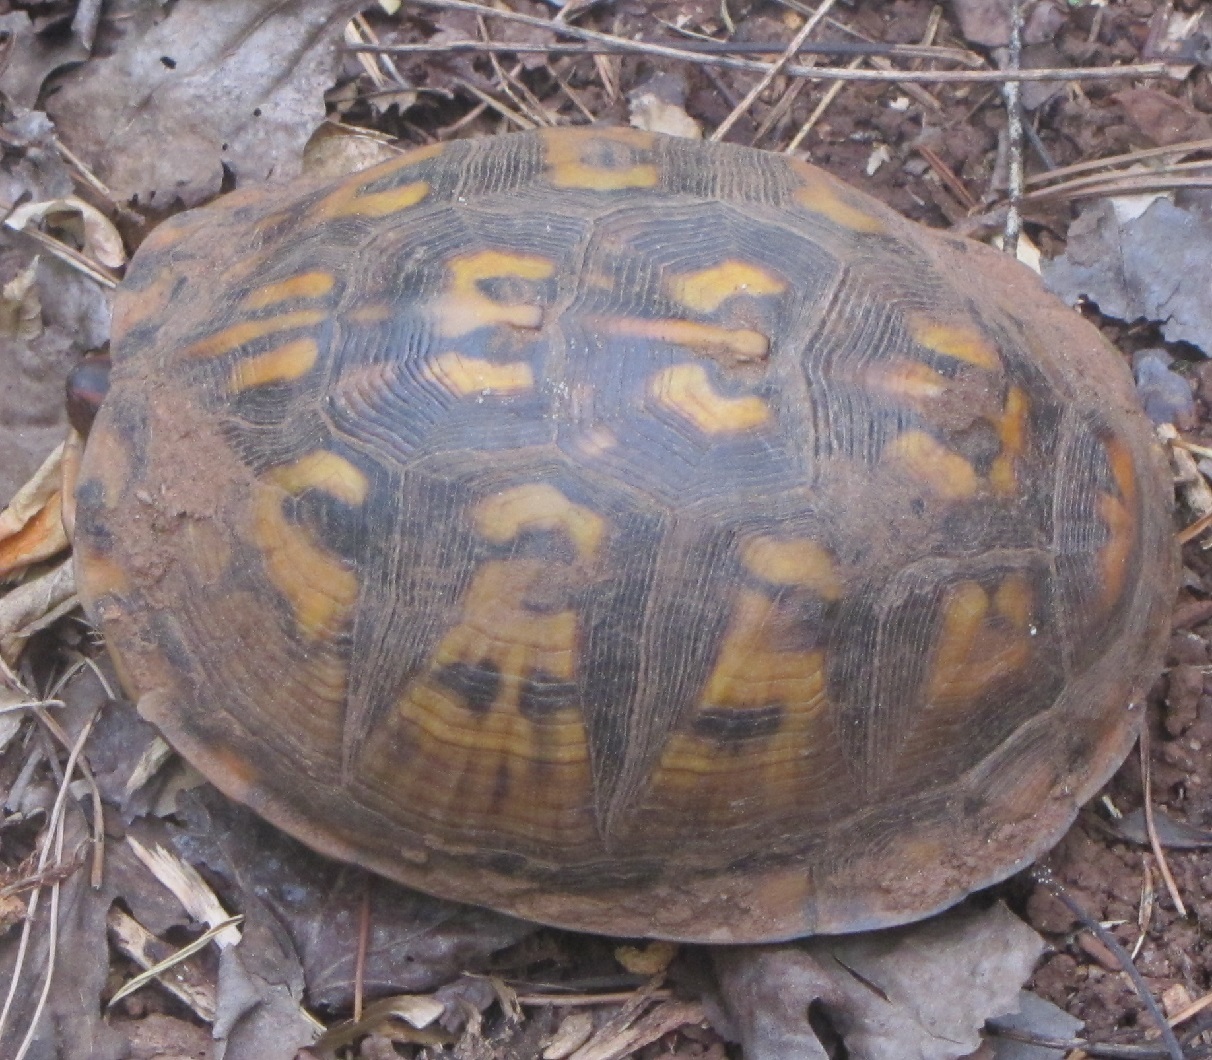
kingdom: Animalia
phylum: Chordata
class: Testudines
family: Emydidae
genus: Terrapene
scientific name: Terrapene carolina
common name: Common box turtle
